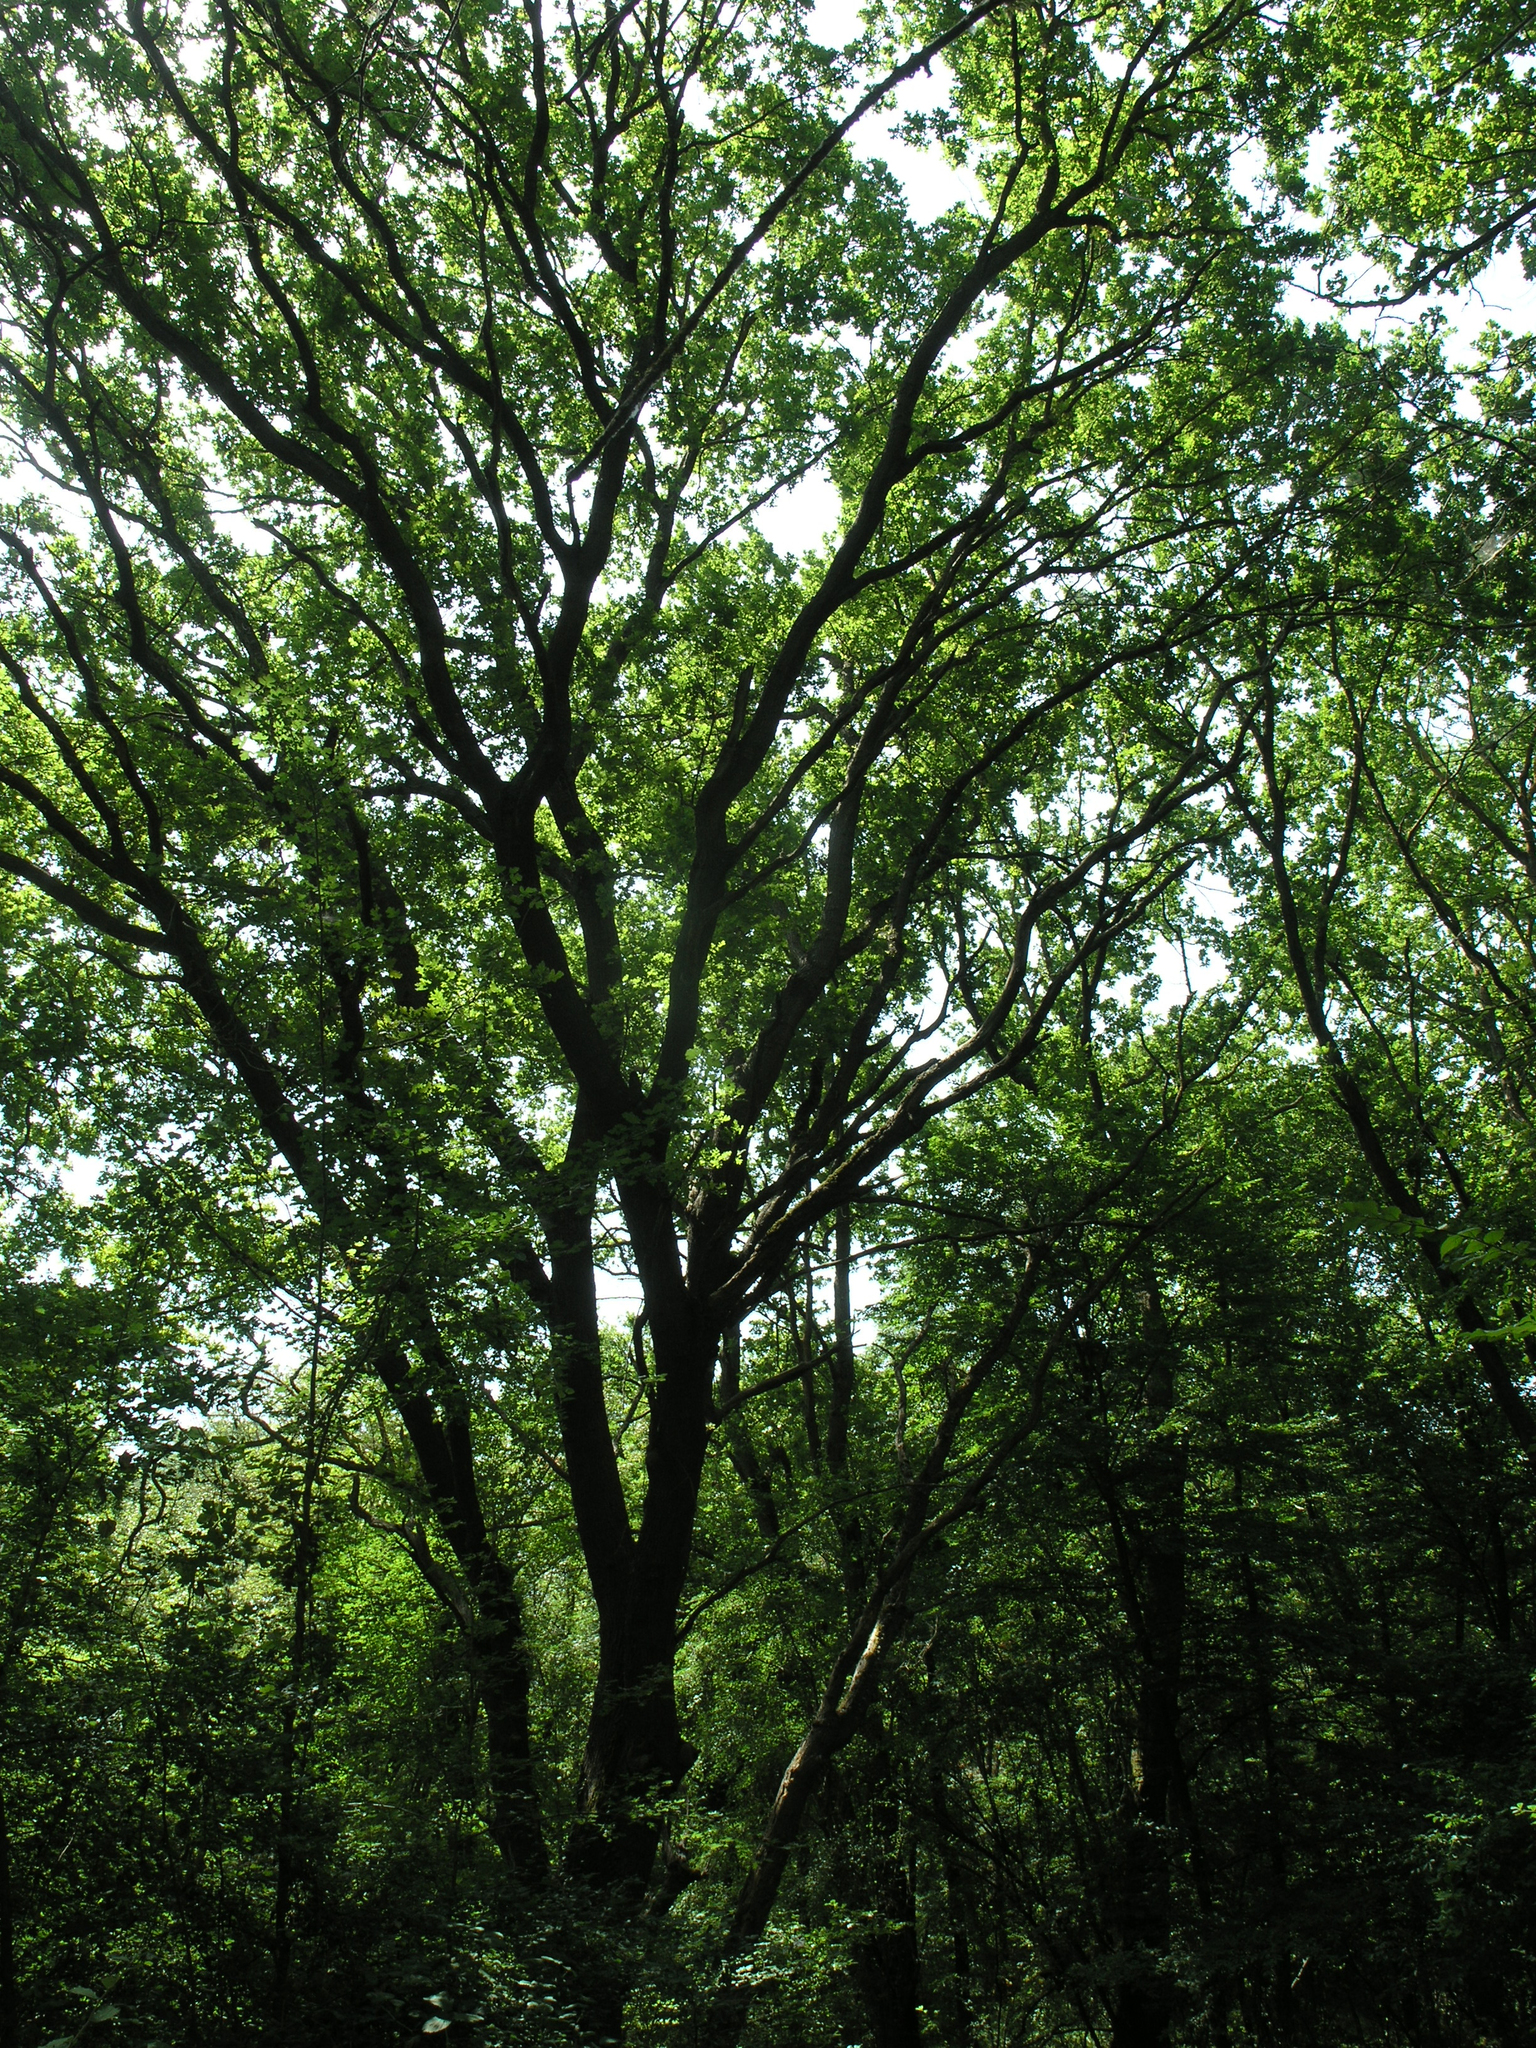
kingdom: Plantae
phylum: Tracheophyta
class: Magnoliopsida
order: Fagales
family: Fagaceae
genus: Quercus
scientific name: Quercus robur
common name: Pedunculate oak
